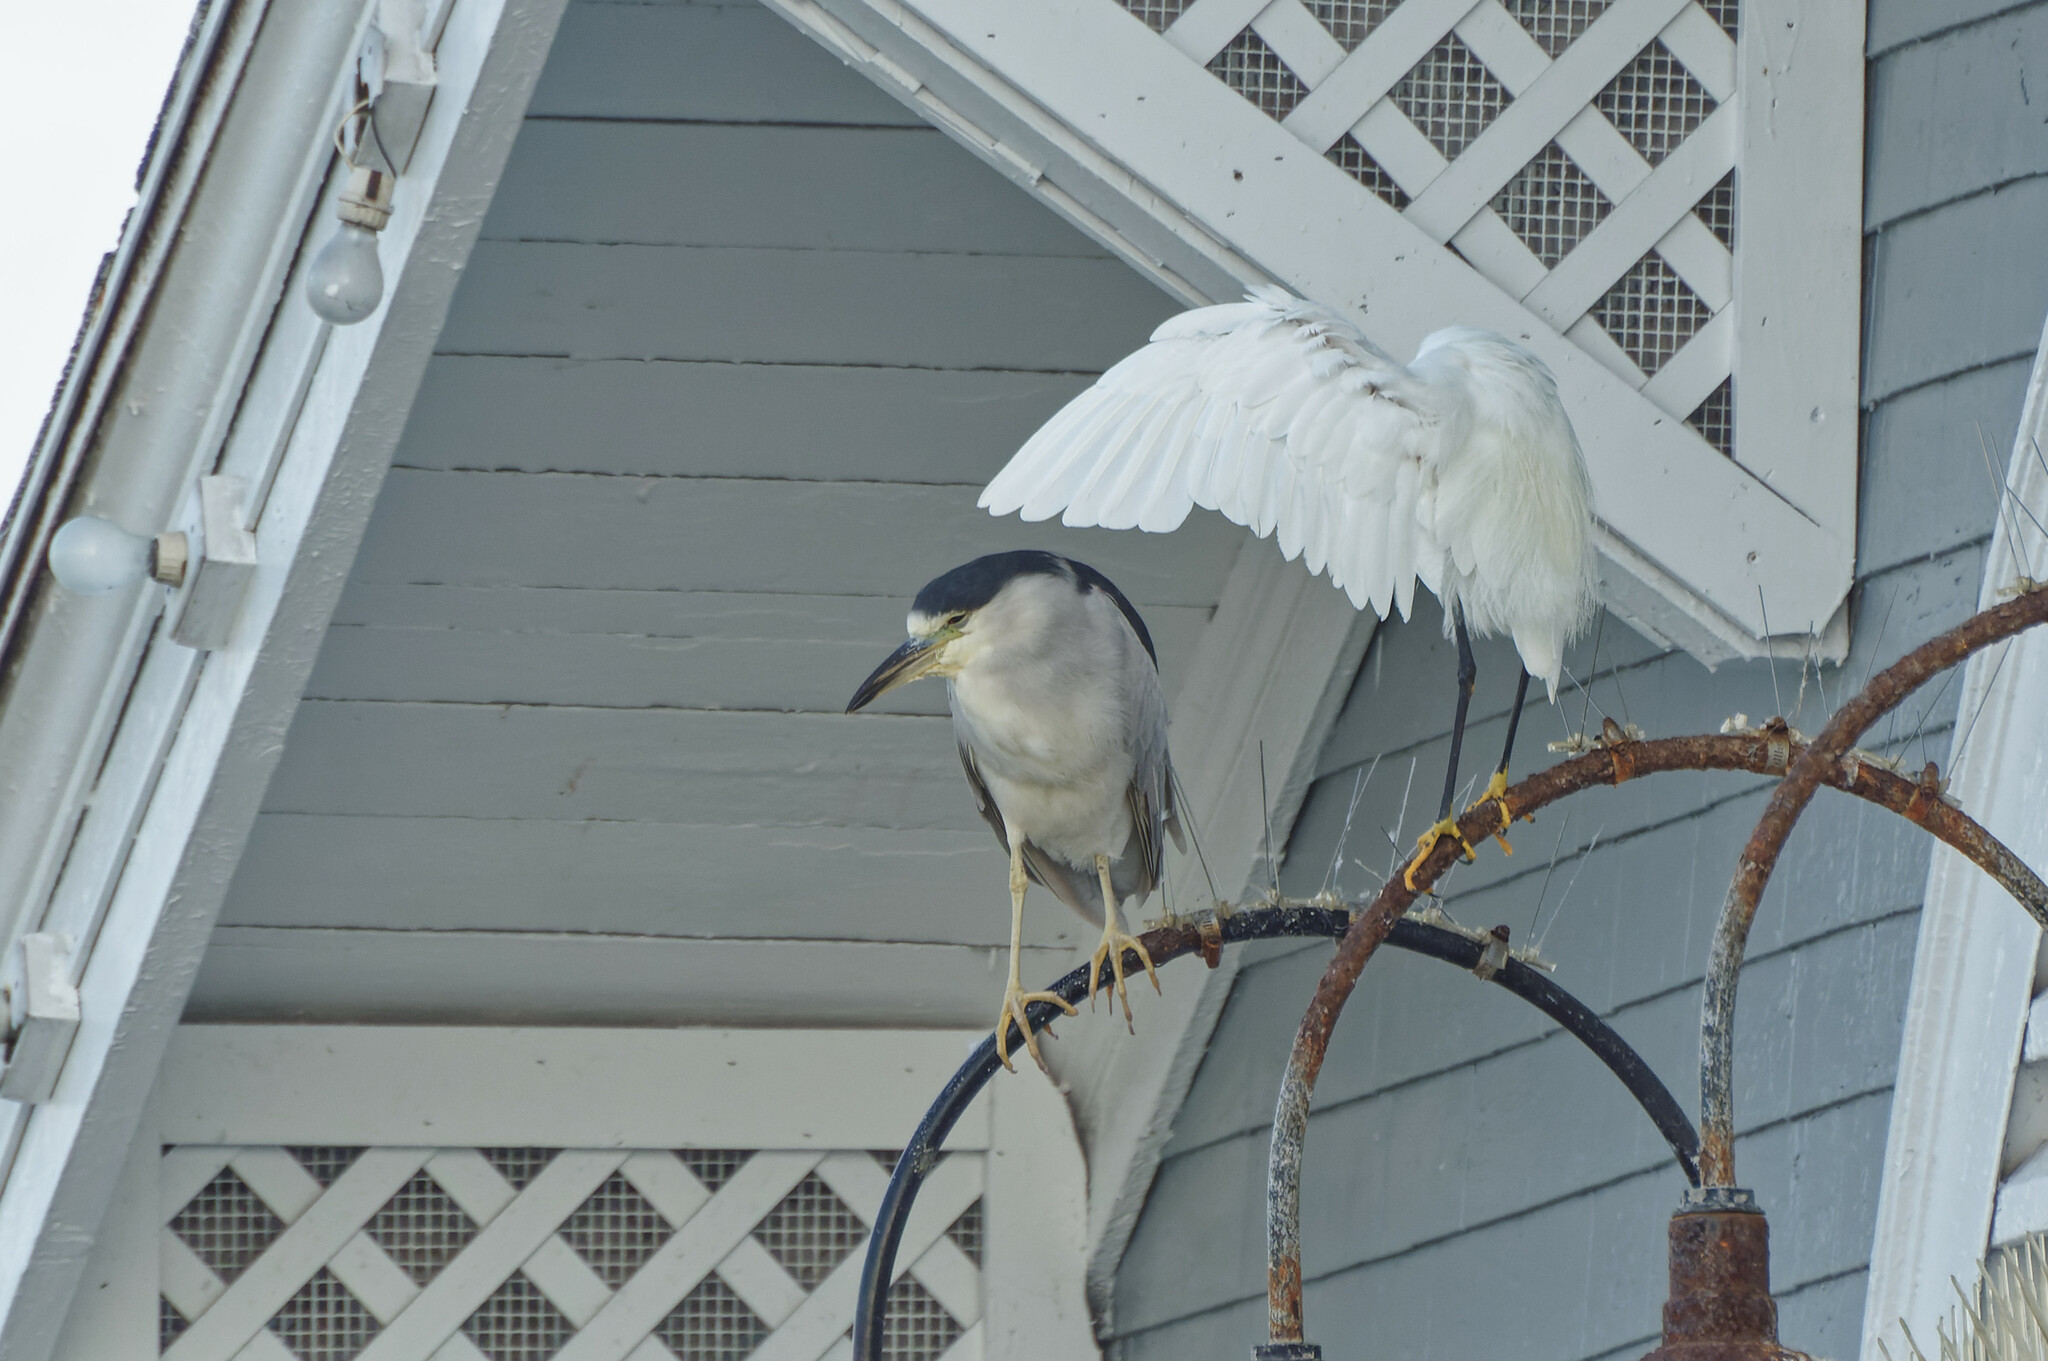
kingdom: Animalia
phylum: Chordata
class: Aves
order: Pelecaniformes
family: Ardeidae
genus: Nycticorax
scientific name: Nycticorax nycticorax
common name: Black-crowned night heron
